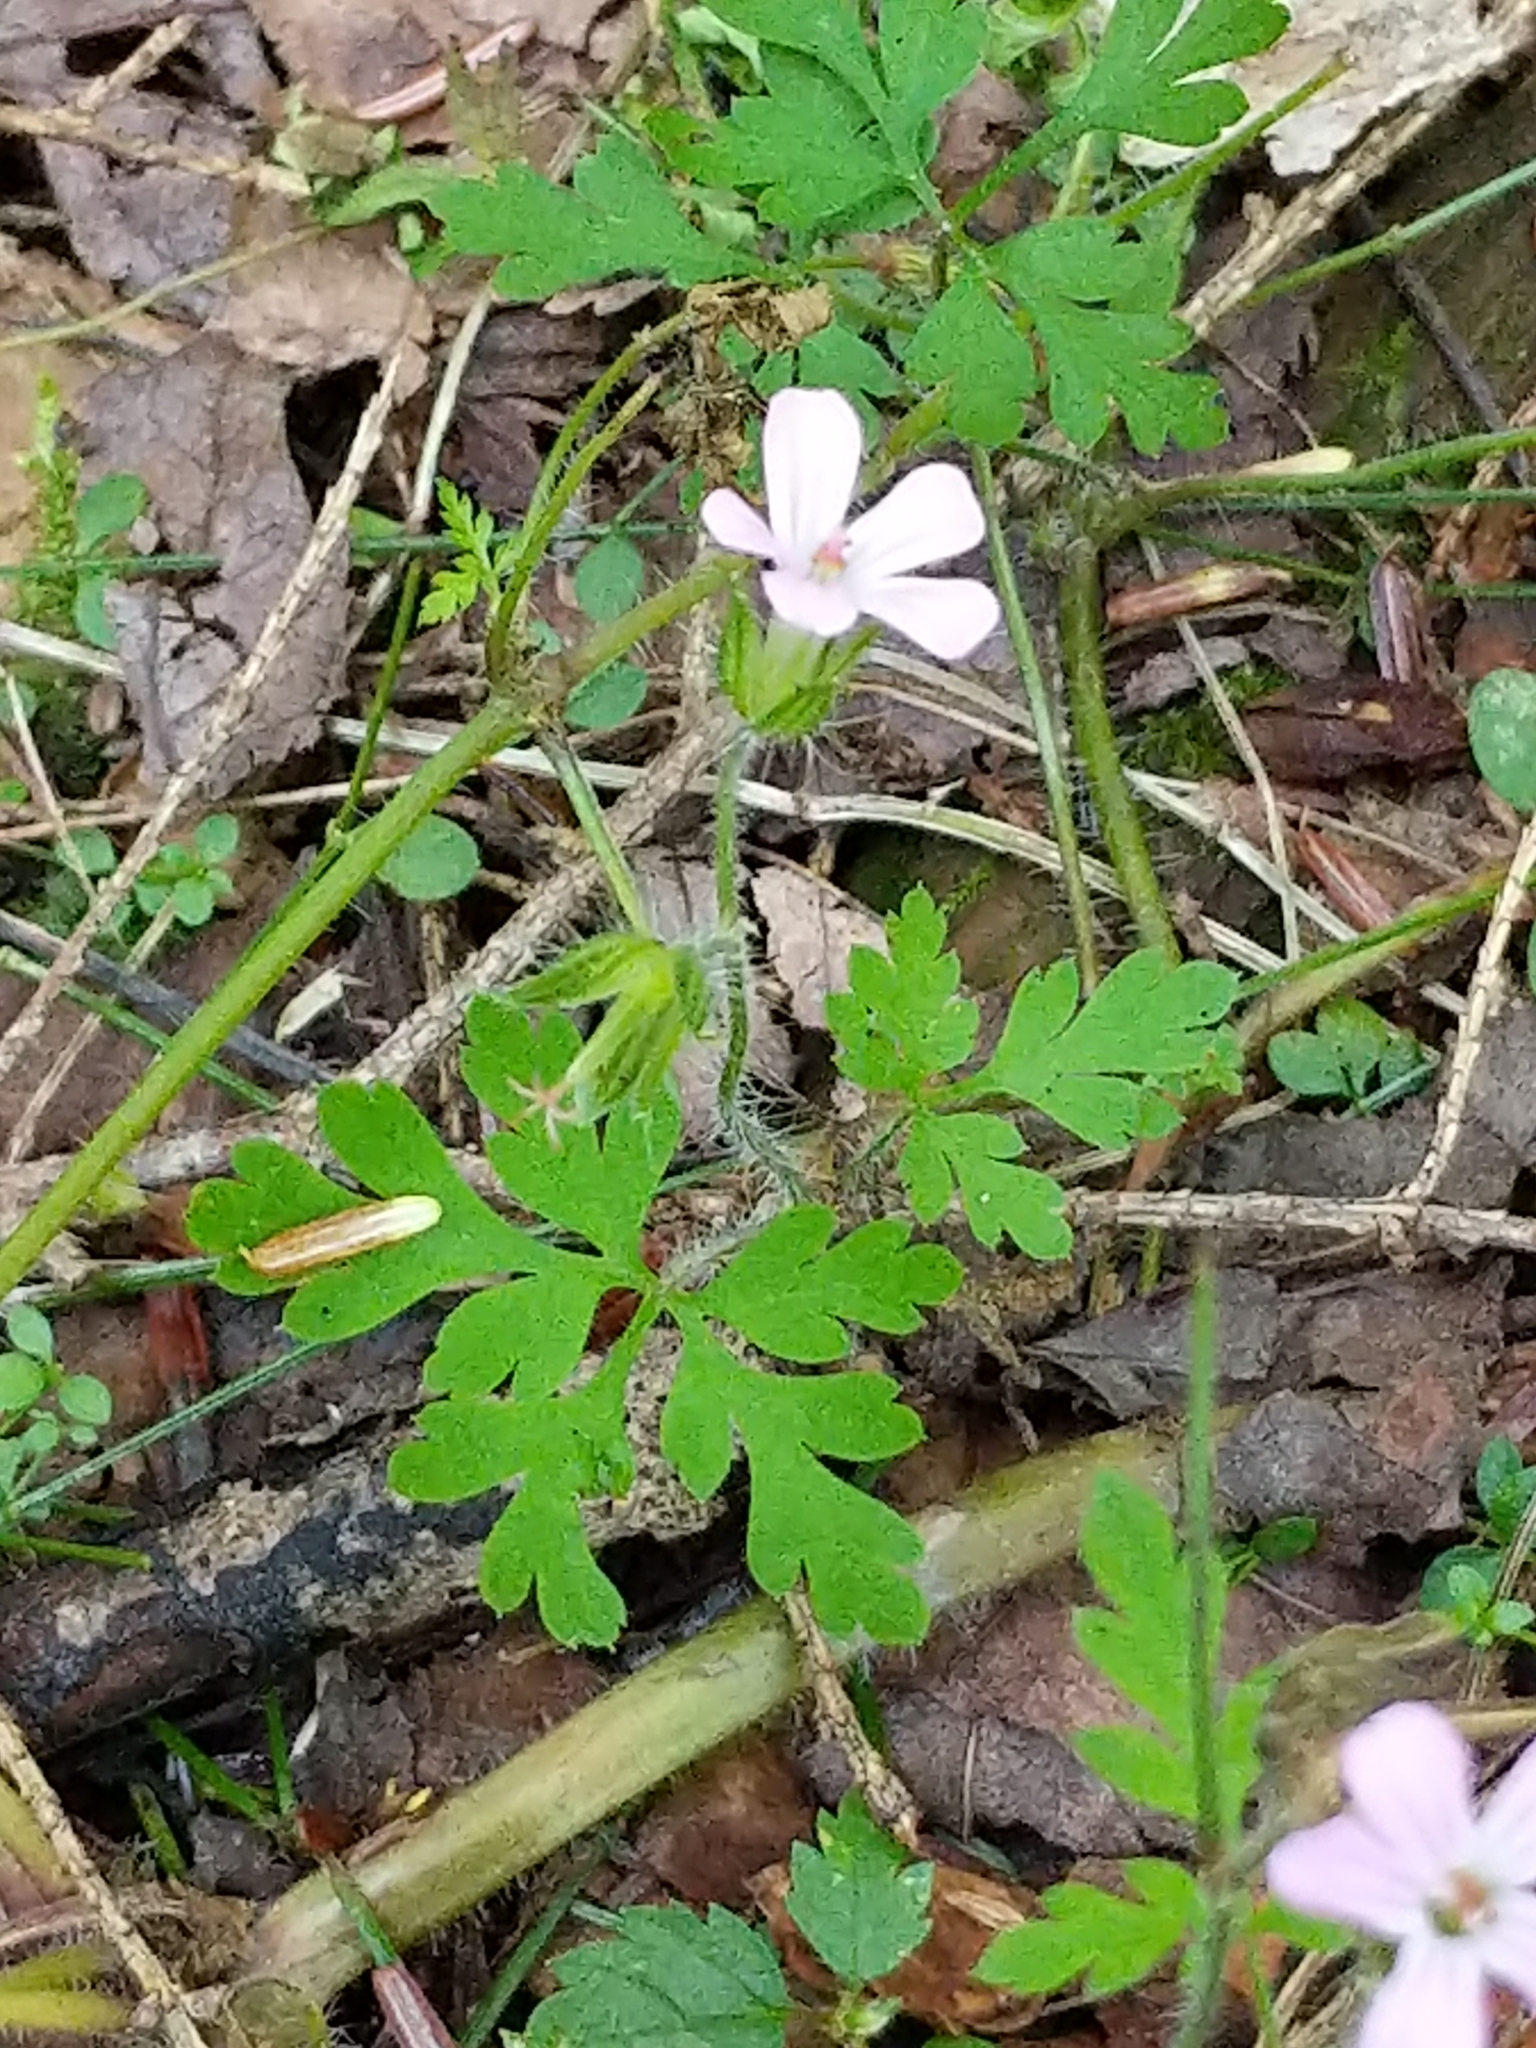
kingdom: Plantae
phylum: Tracheophyta
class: Magnoliopsida
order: Geraniales
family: Geraniaceae
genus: Geranium
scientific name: Geranium robertianum
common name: Herb-robert
